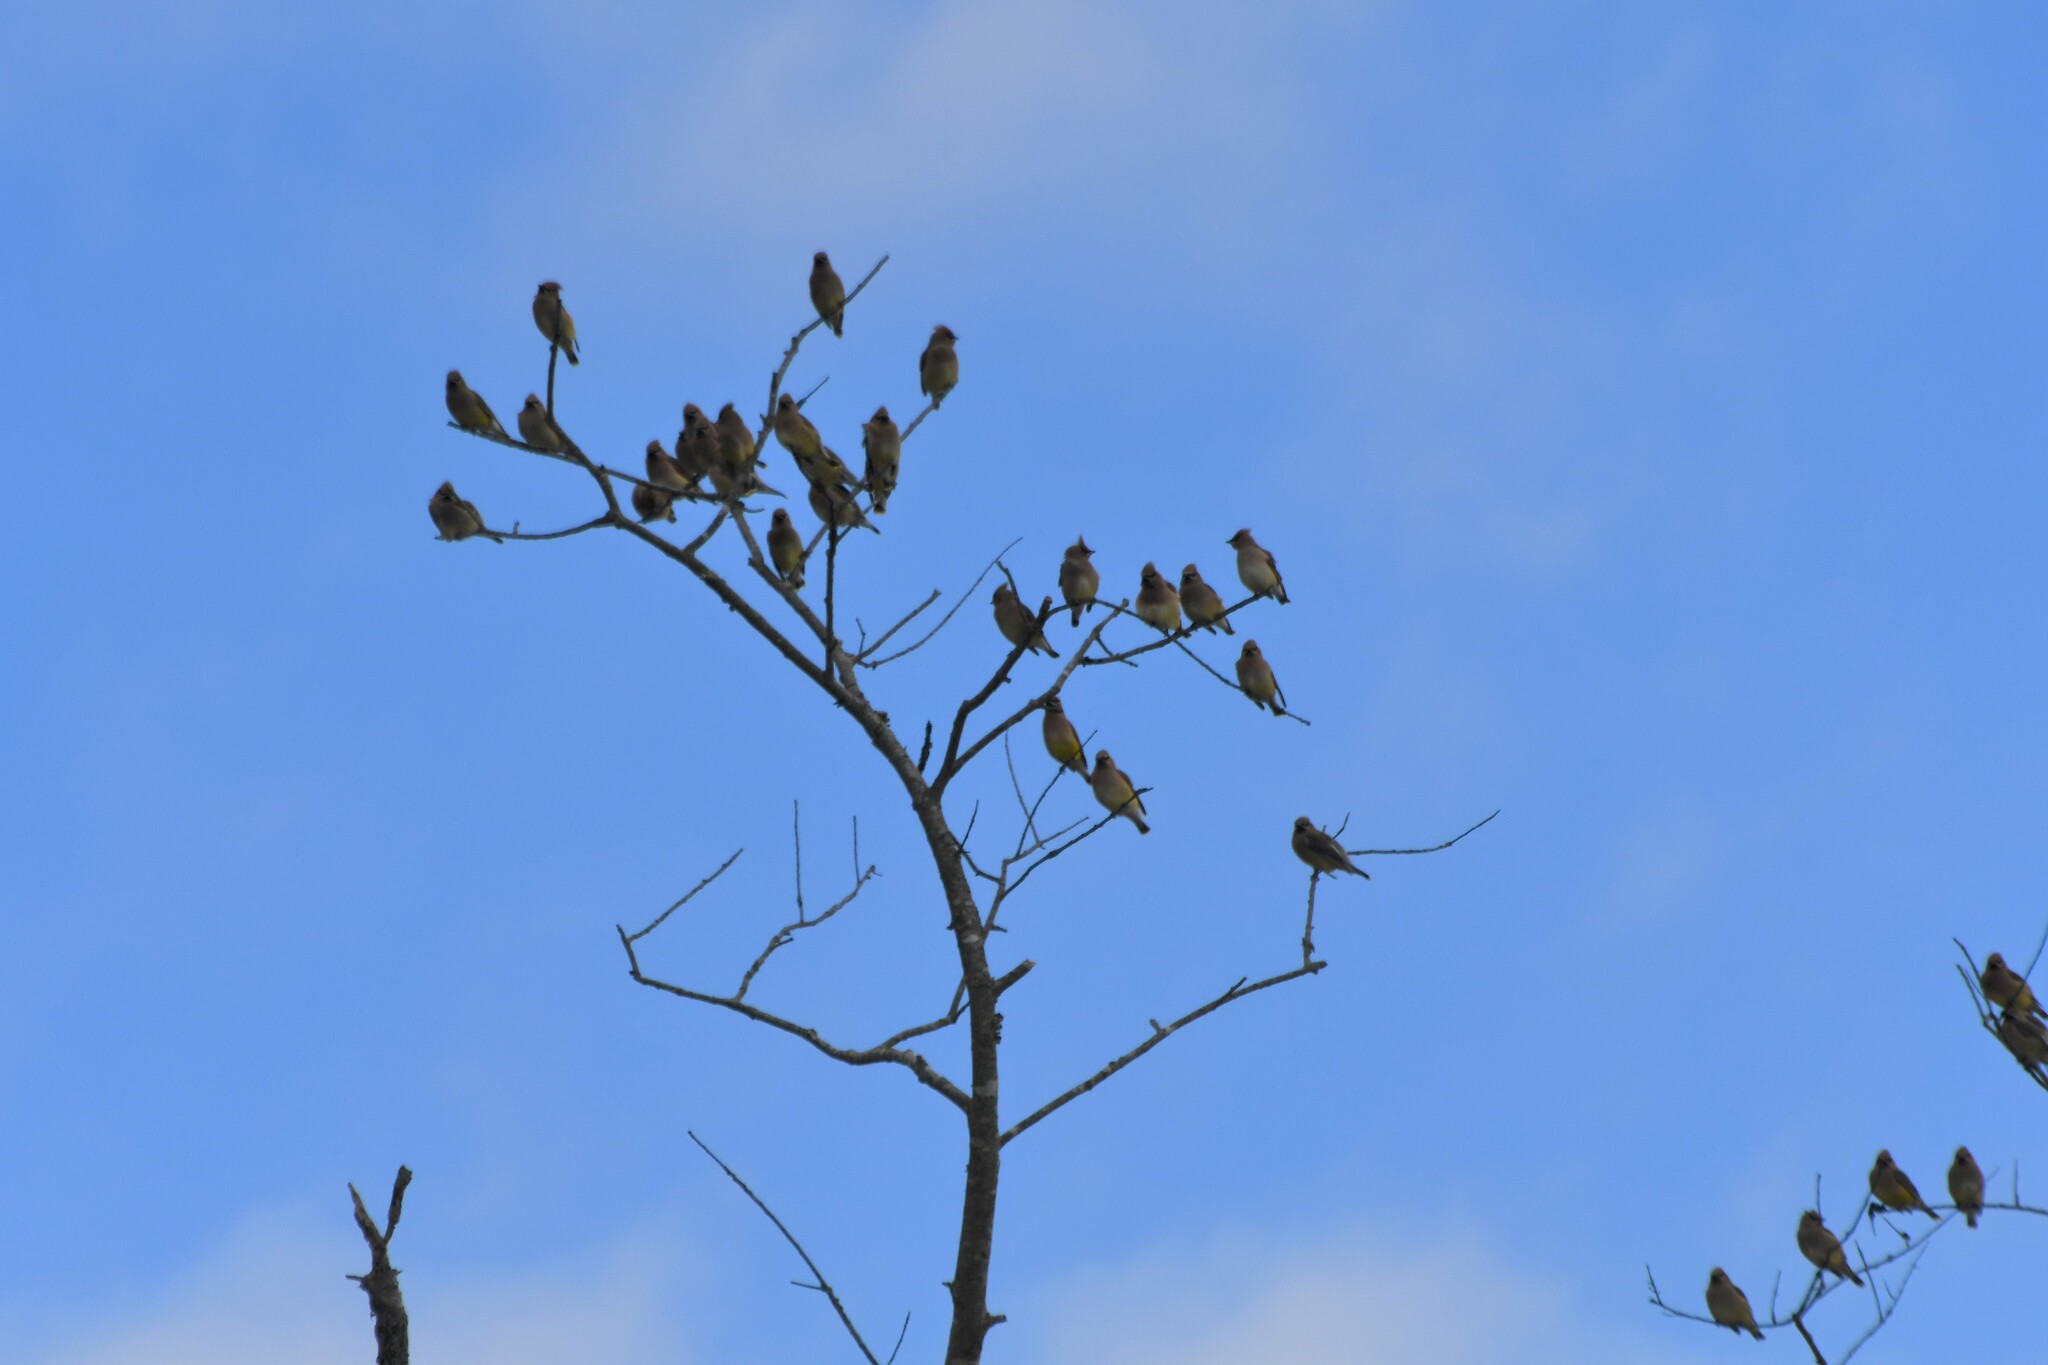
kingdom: Animalia
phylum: Chordata
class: Aves
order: Passeriformes
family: Bombycillidae
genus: Bombycilla
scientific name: Bombycilla cedrorum
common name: Cedar waxwing
